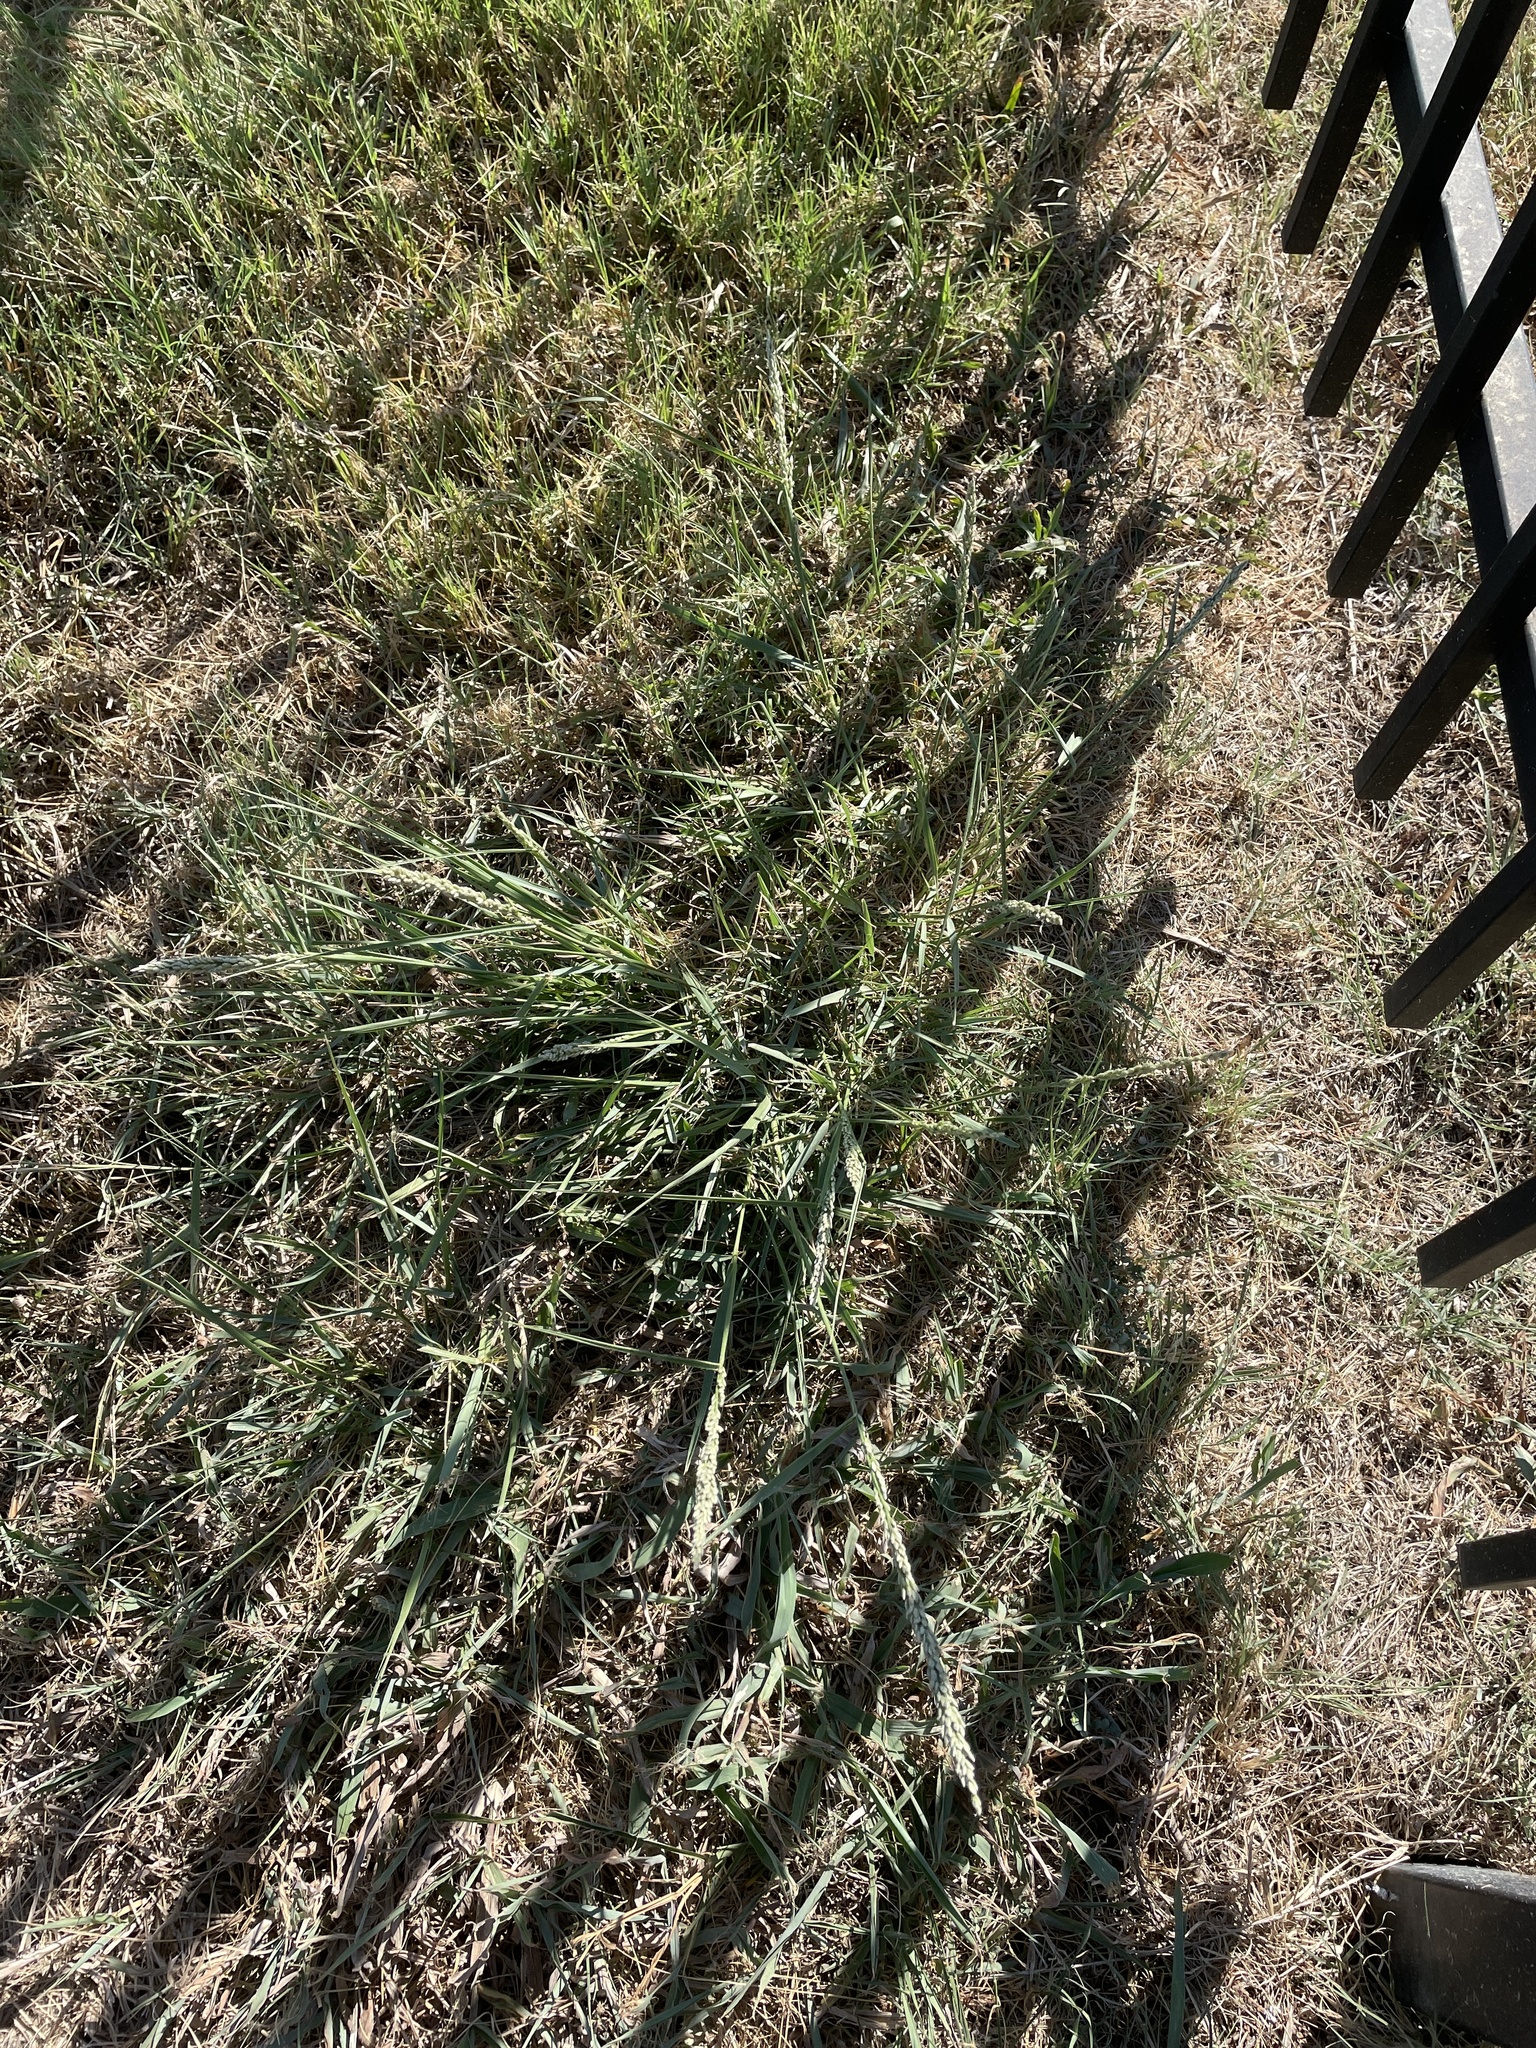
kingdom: Plantae
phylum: Tracheophyta
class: Liliopsida
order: Poales
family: Poaceae
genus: Tridens
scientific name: Tridens albescens
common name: White tridens
